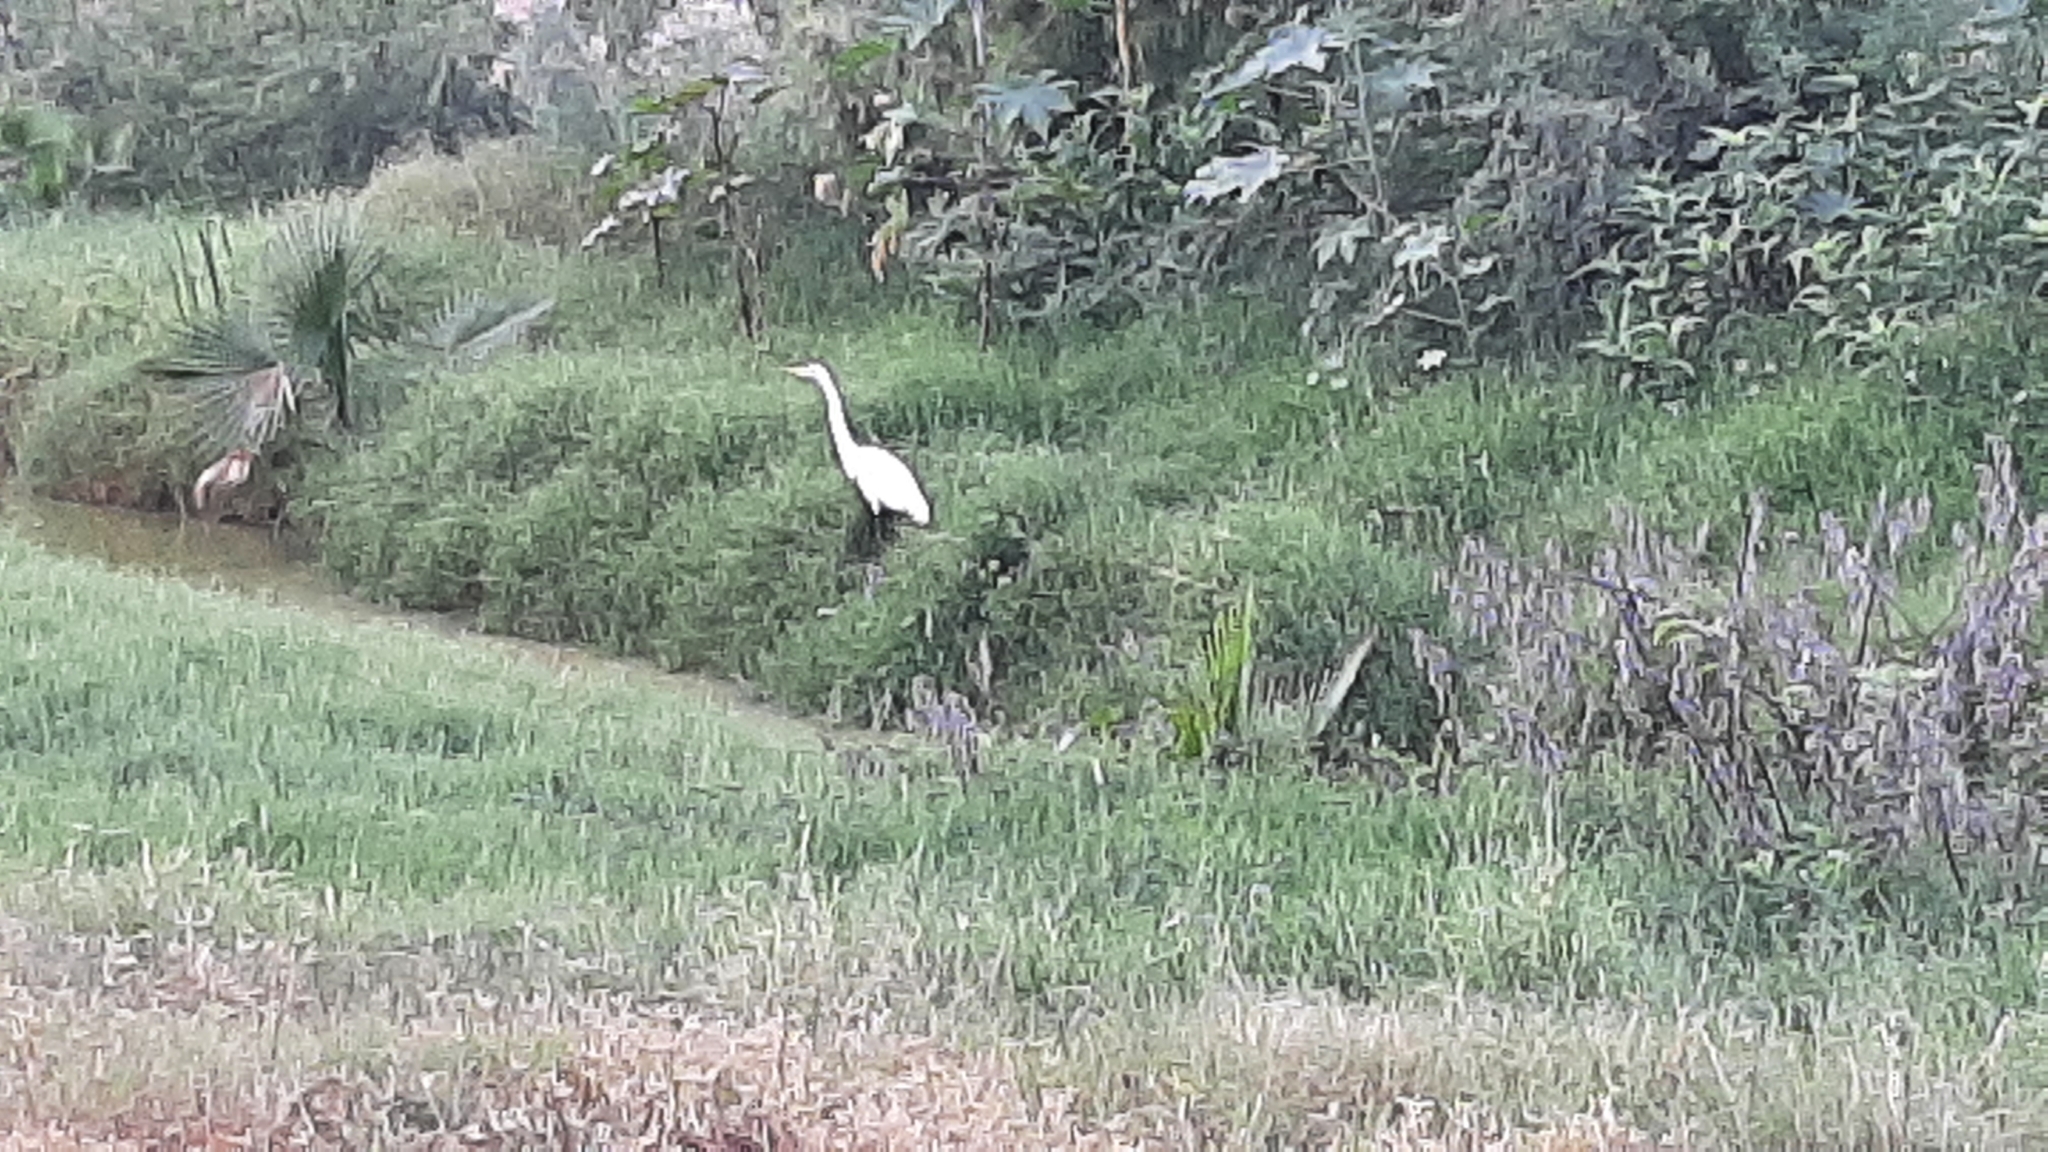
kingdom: Animalia
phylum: Chordata
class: Aves
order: Pelecaniformes
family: Ardeidae
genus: Ardea
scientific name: Ardea alba
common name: Great egret
